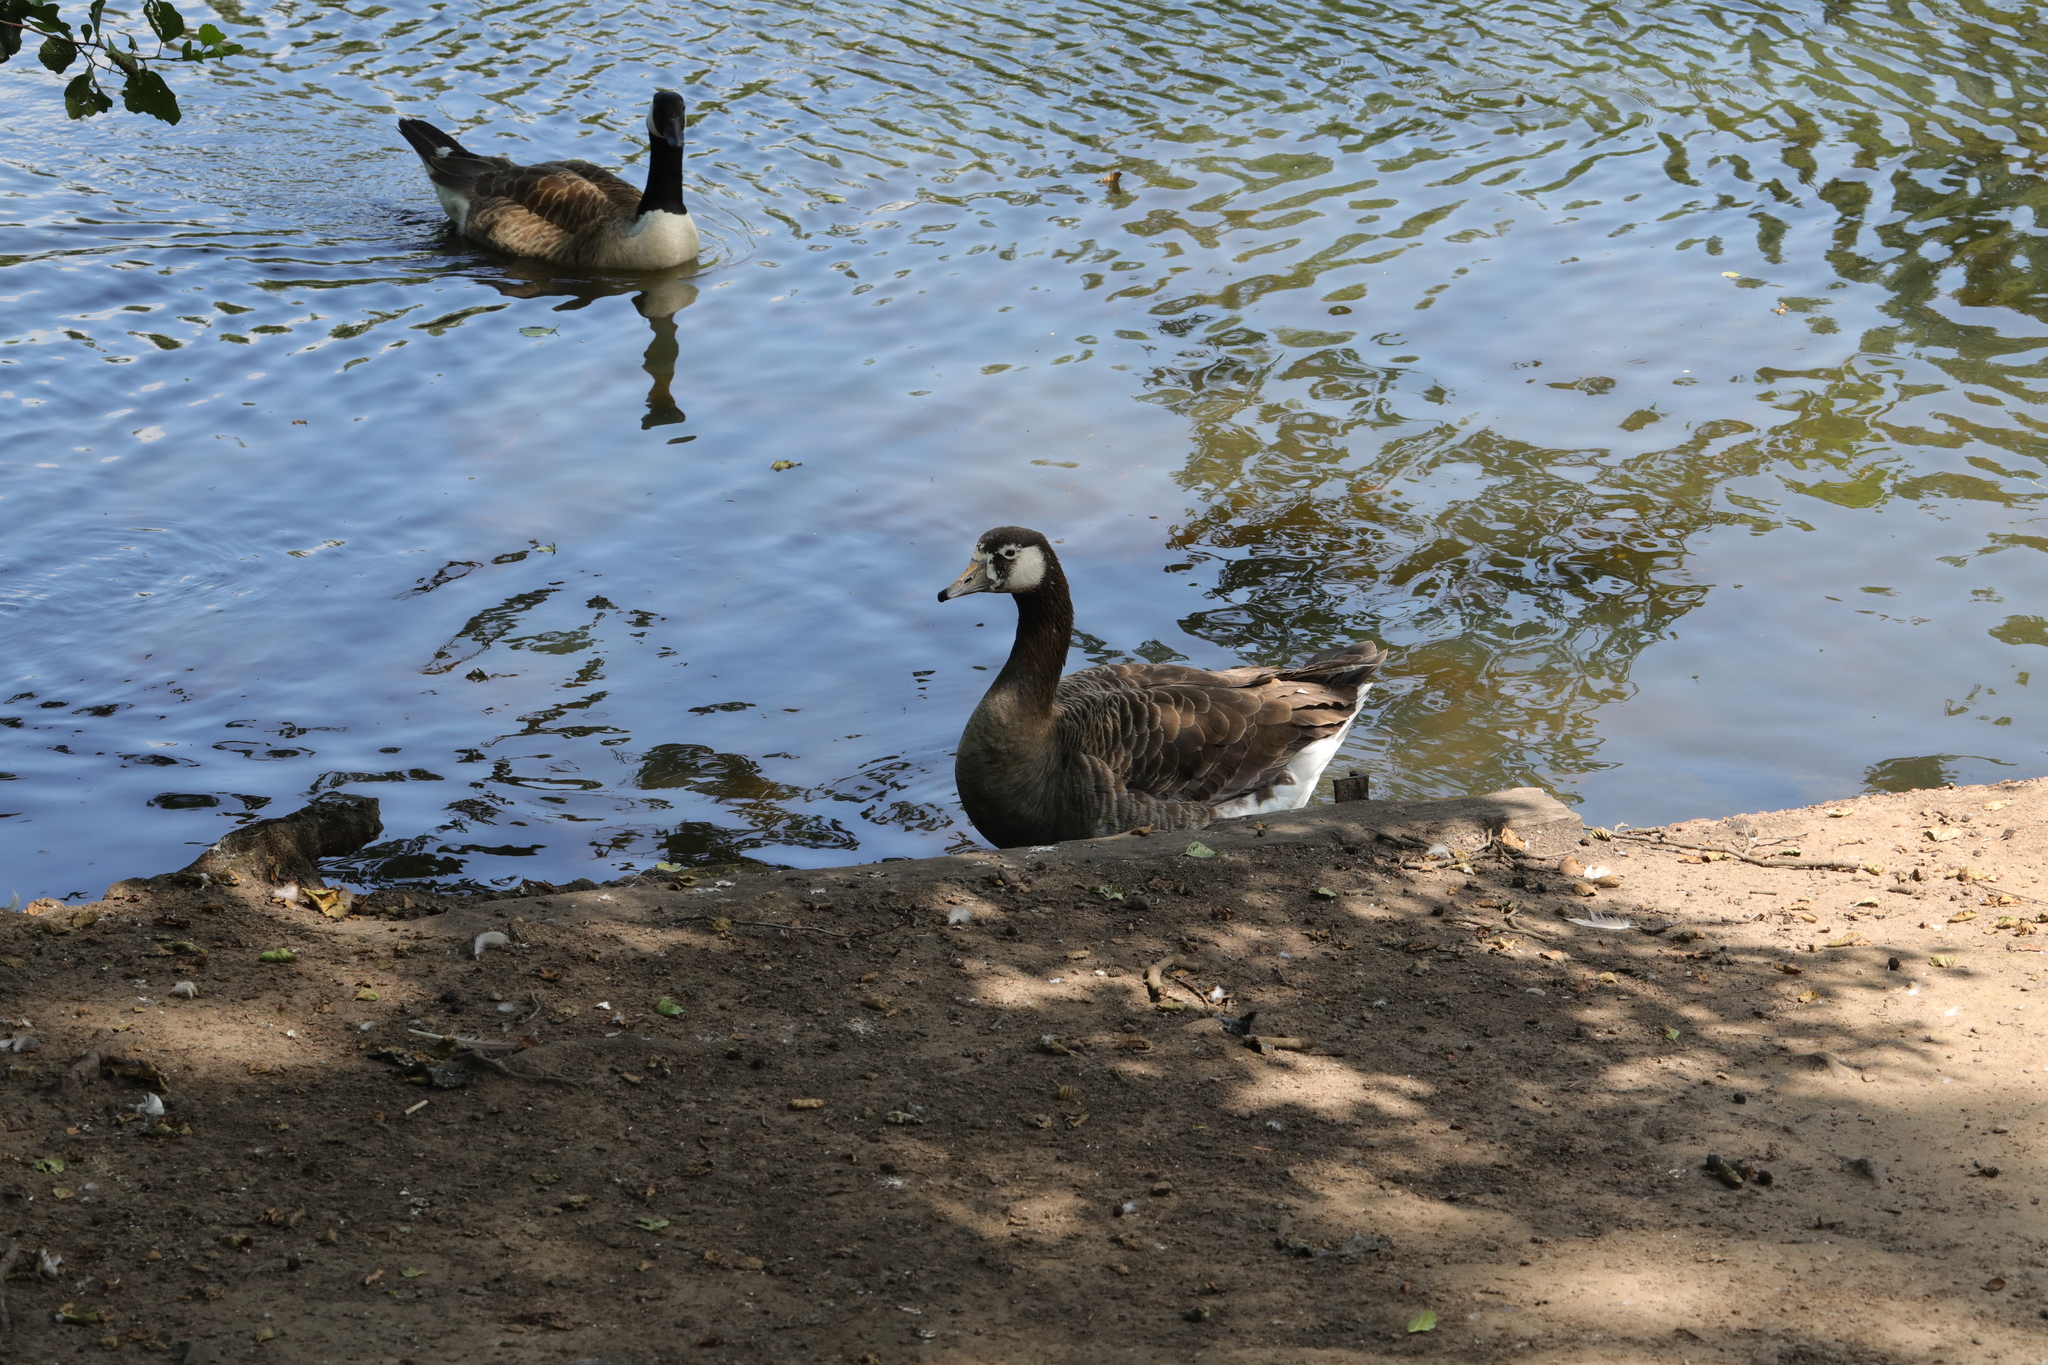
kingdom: Animalia
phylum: Chordata
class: Aves
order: Anseriformes
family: Anatidae
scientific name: Anatidae
